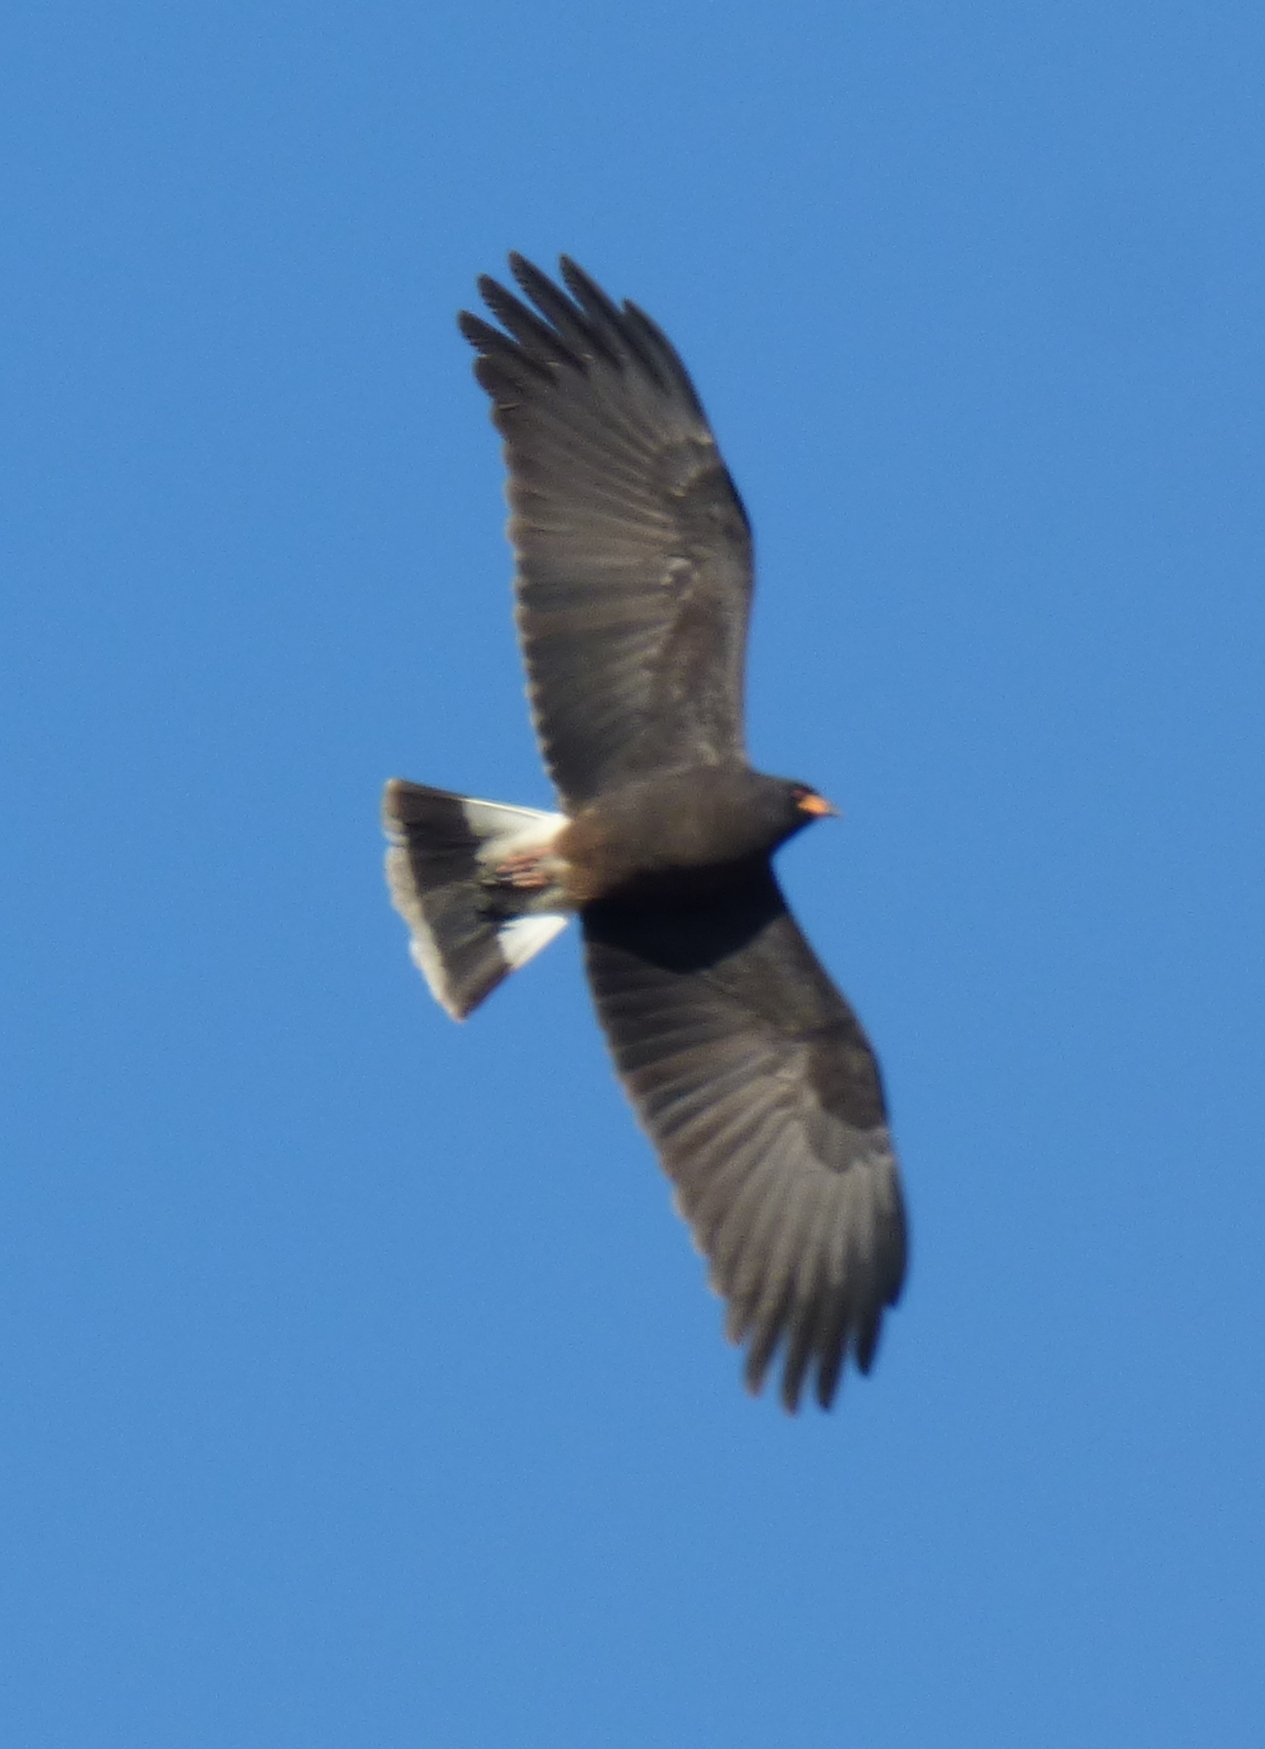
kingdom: Animalia
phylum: Chordata
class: Aves
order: Accipitriformes
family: Accipitridae
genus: Rostrhamus
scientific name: Rostrhamus sociabilis
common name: Snail kite
